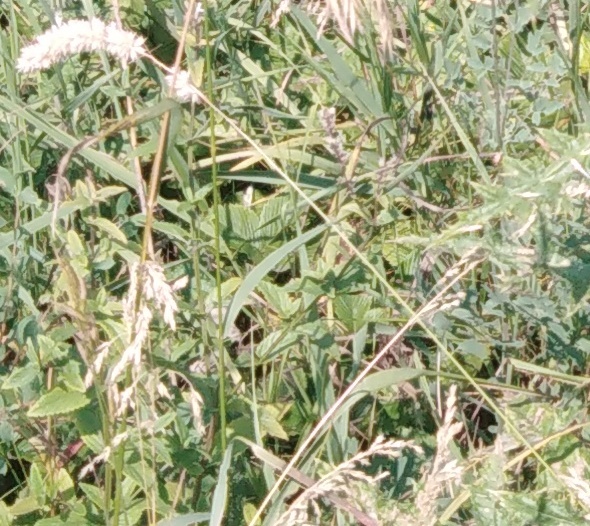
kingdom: Plantae
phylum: Tracheophyta
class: Liliopsida
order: Poales
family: Poaceae
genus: Bromus
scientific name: Bromus inermis
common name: Smooth brome
